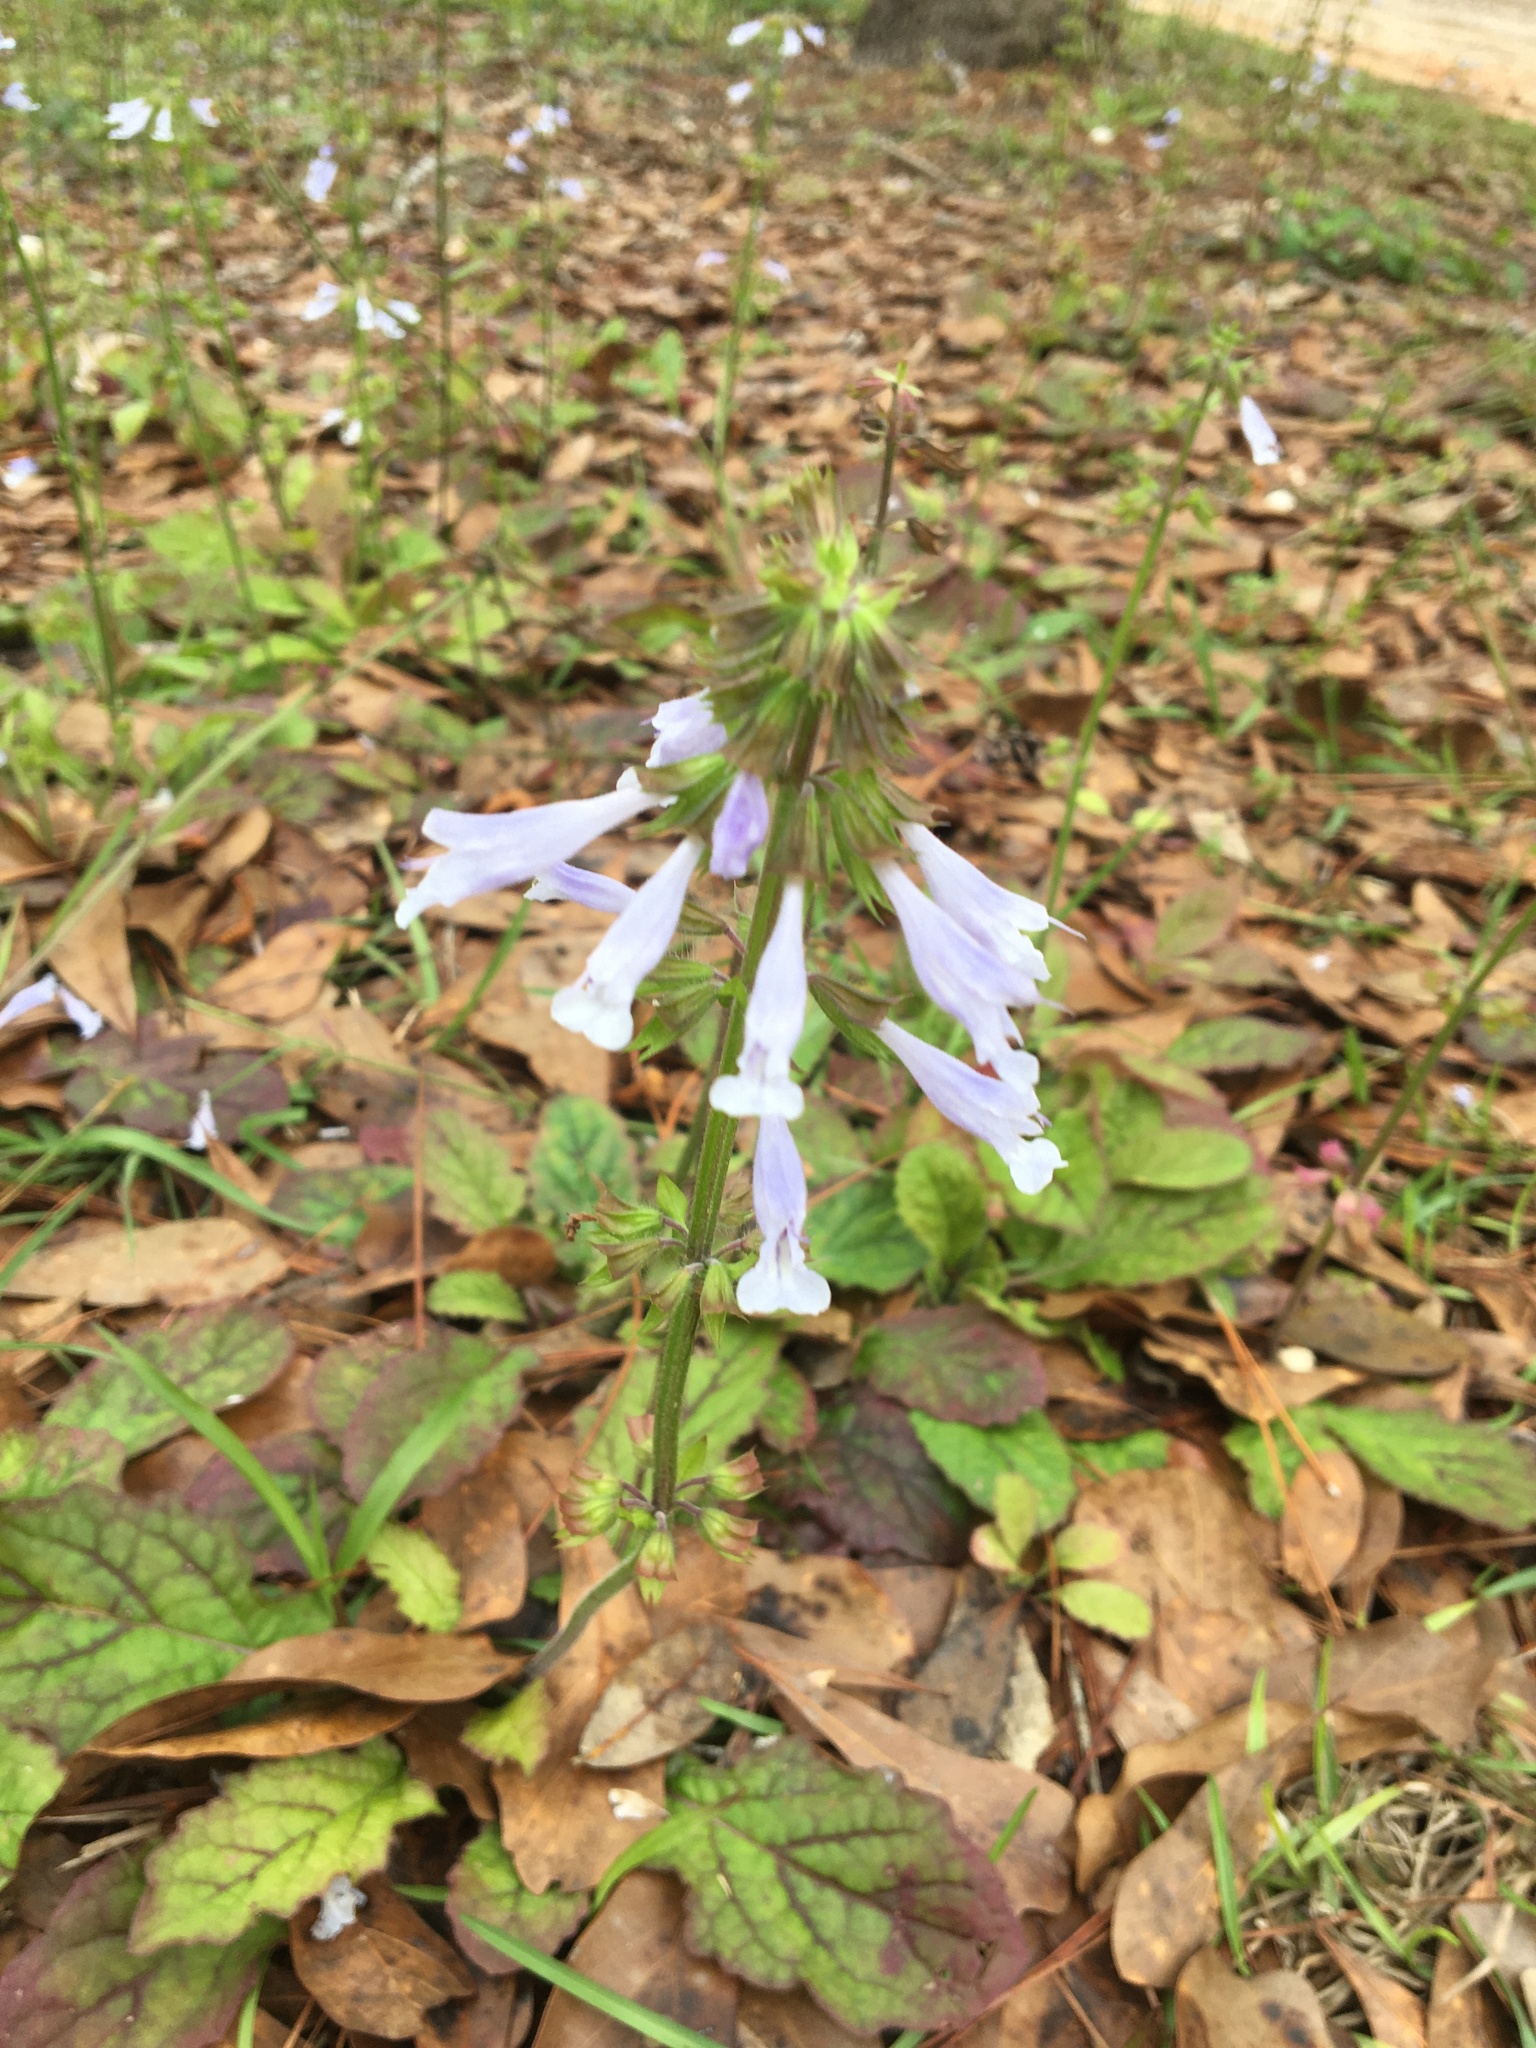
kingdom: Plantae
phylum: Tracheophyta
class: Magnoliopsida
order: Lamiales
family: Lamiaceae
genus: Salvia
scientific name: Salvia lyrata
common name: Cancerweed
